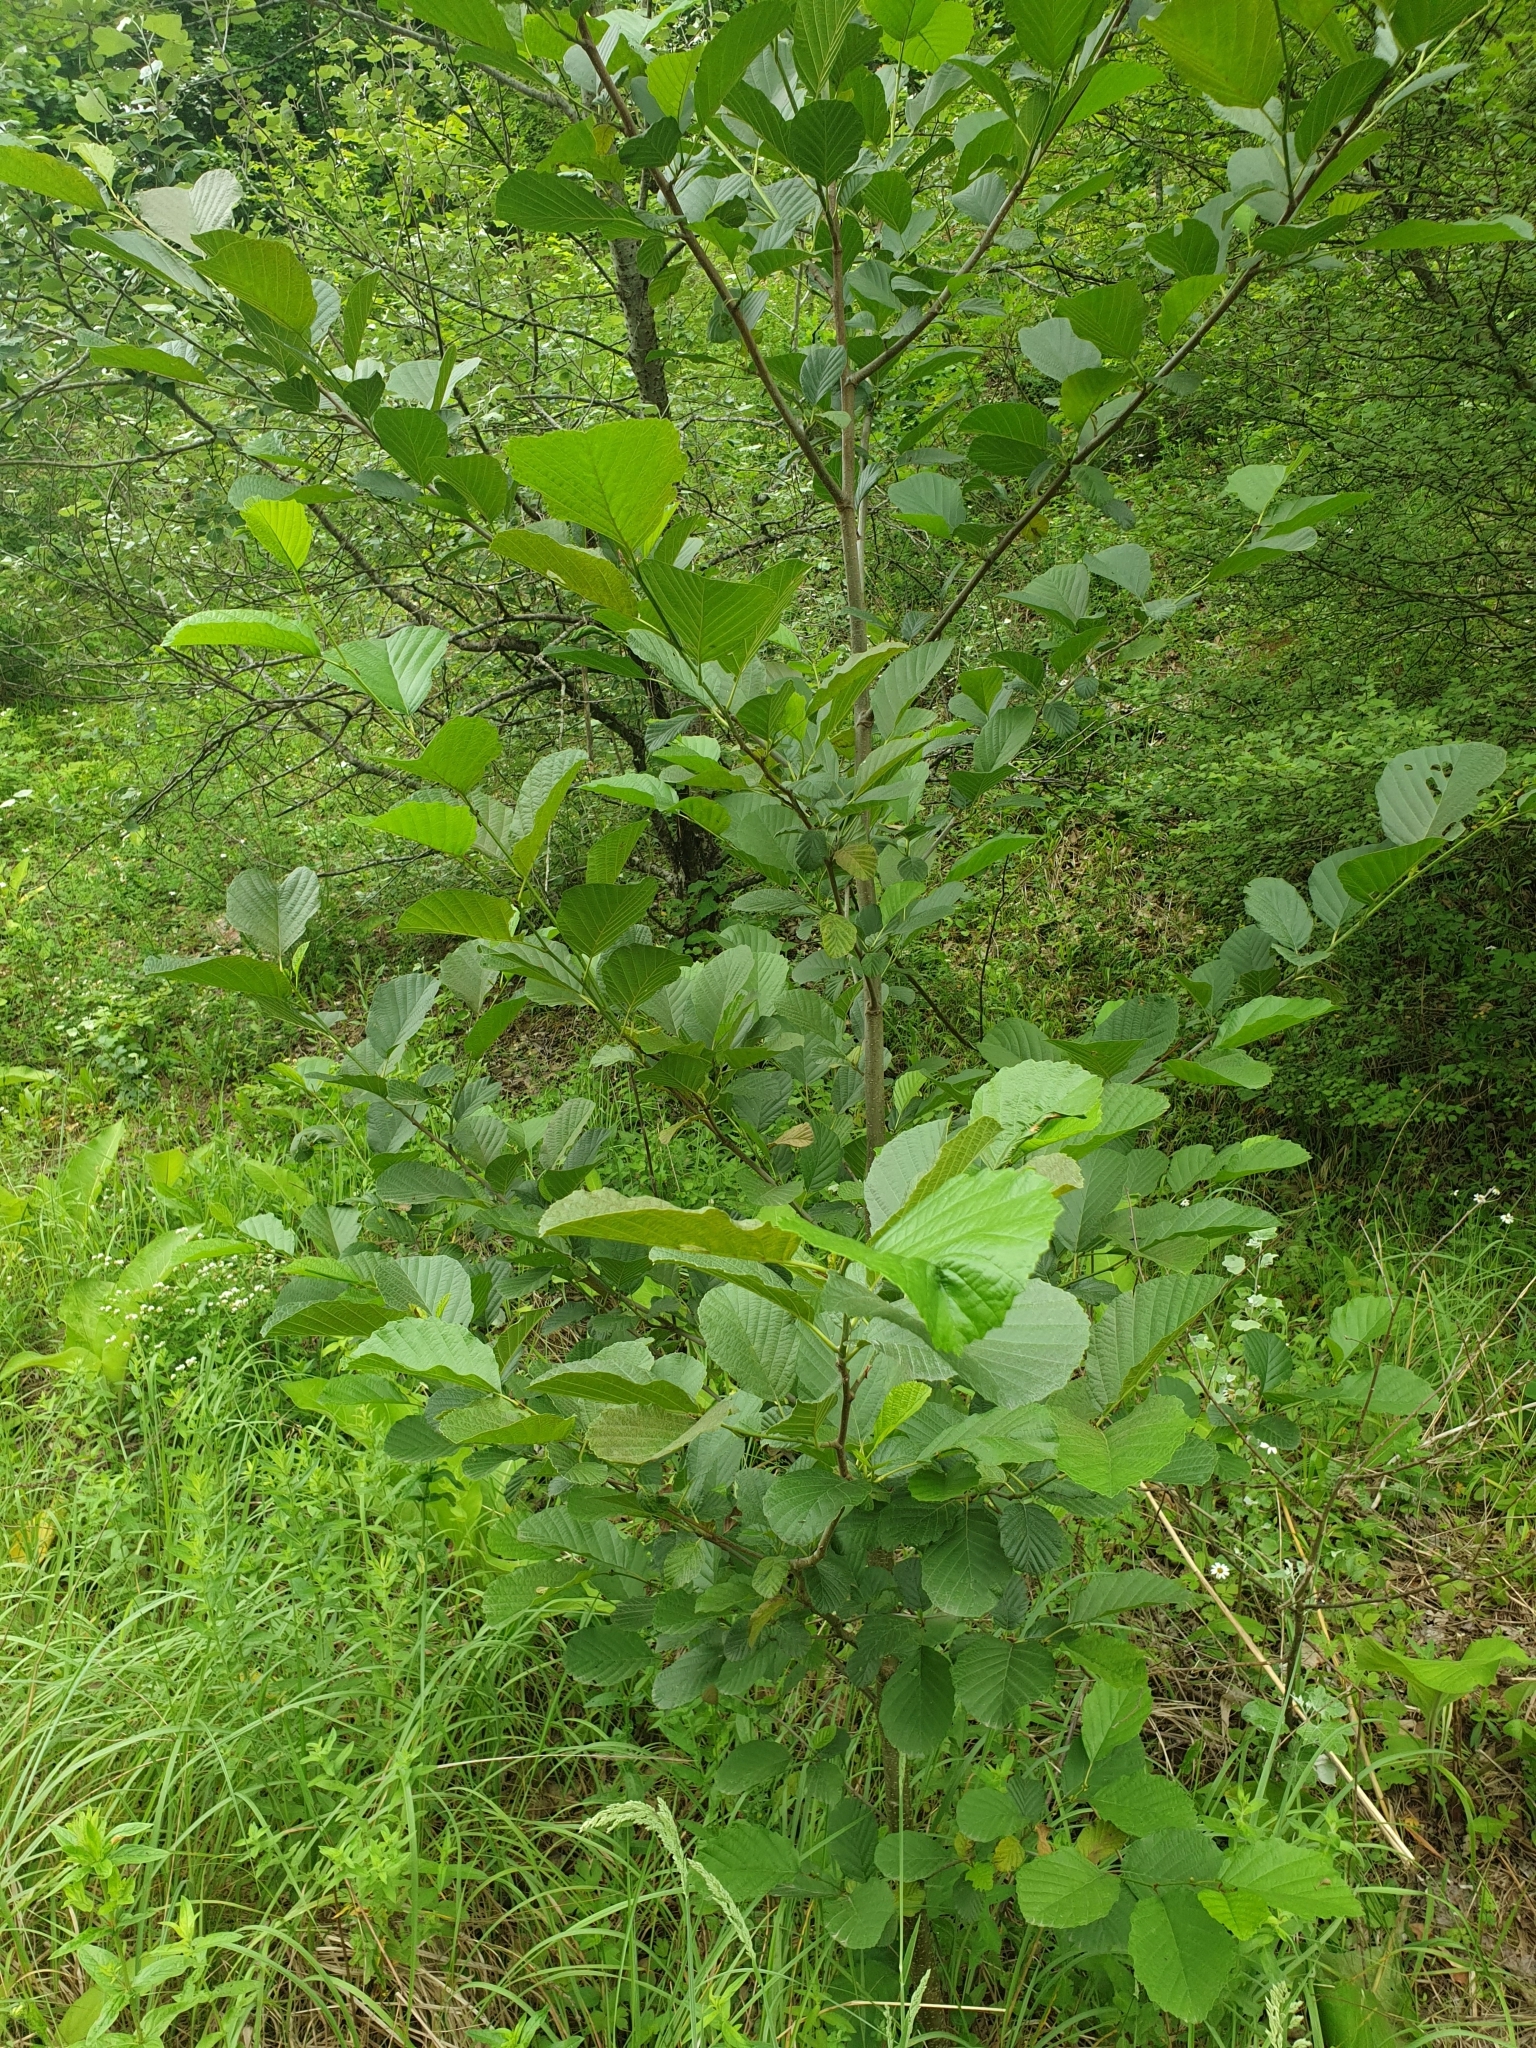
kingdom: Plantae
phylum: Tracheophyta
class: Magnoliopsida
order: Fagales
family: Betulaceae
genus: Alnus
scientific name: Alnus glutinosa
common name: Black alder
